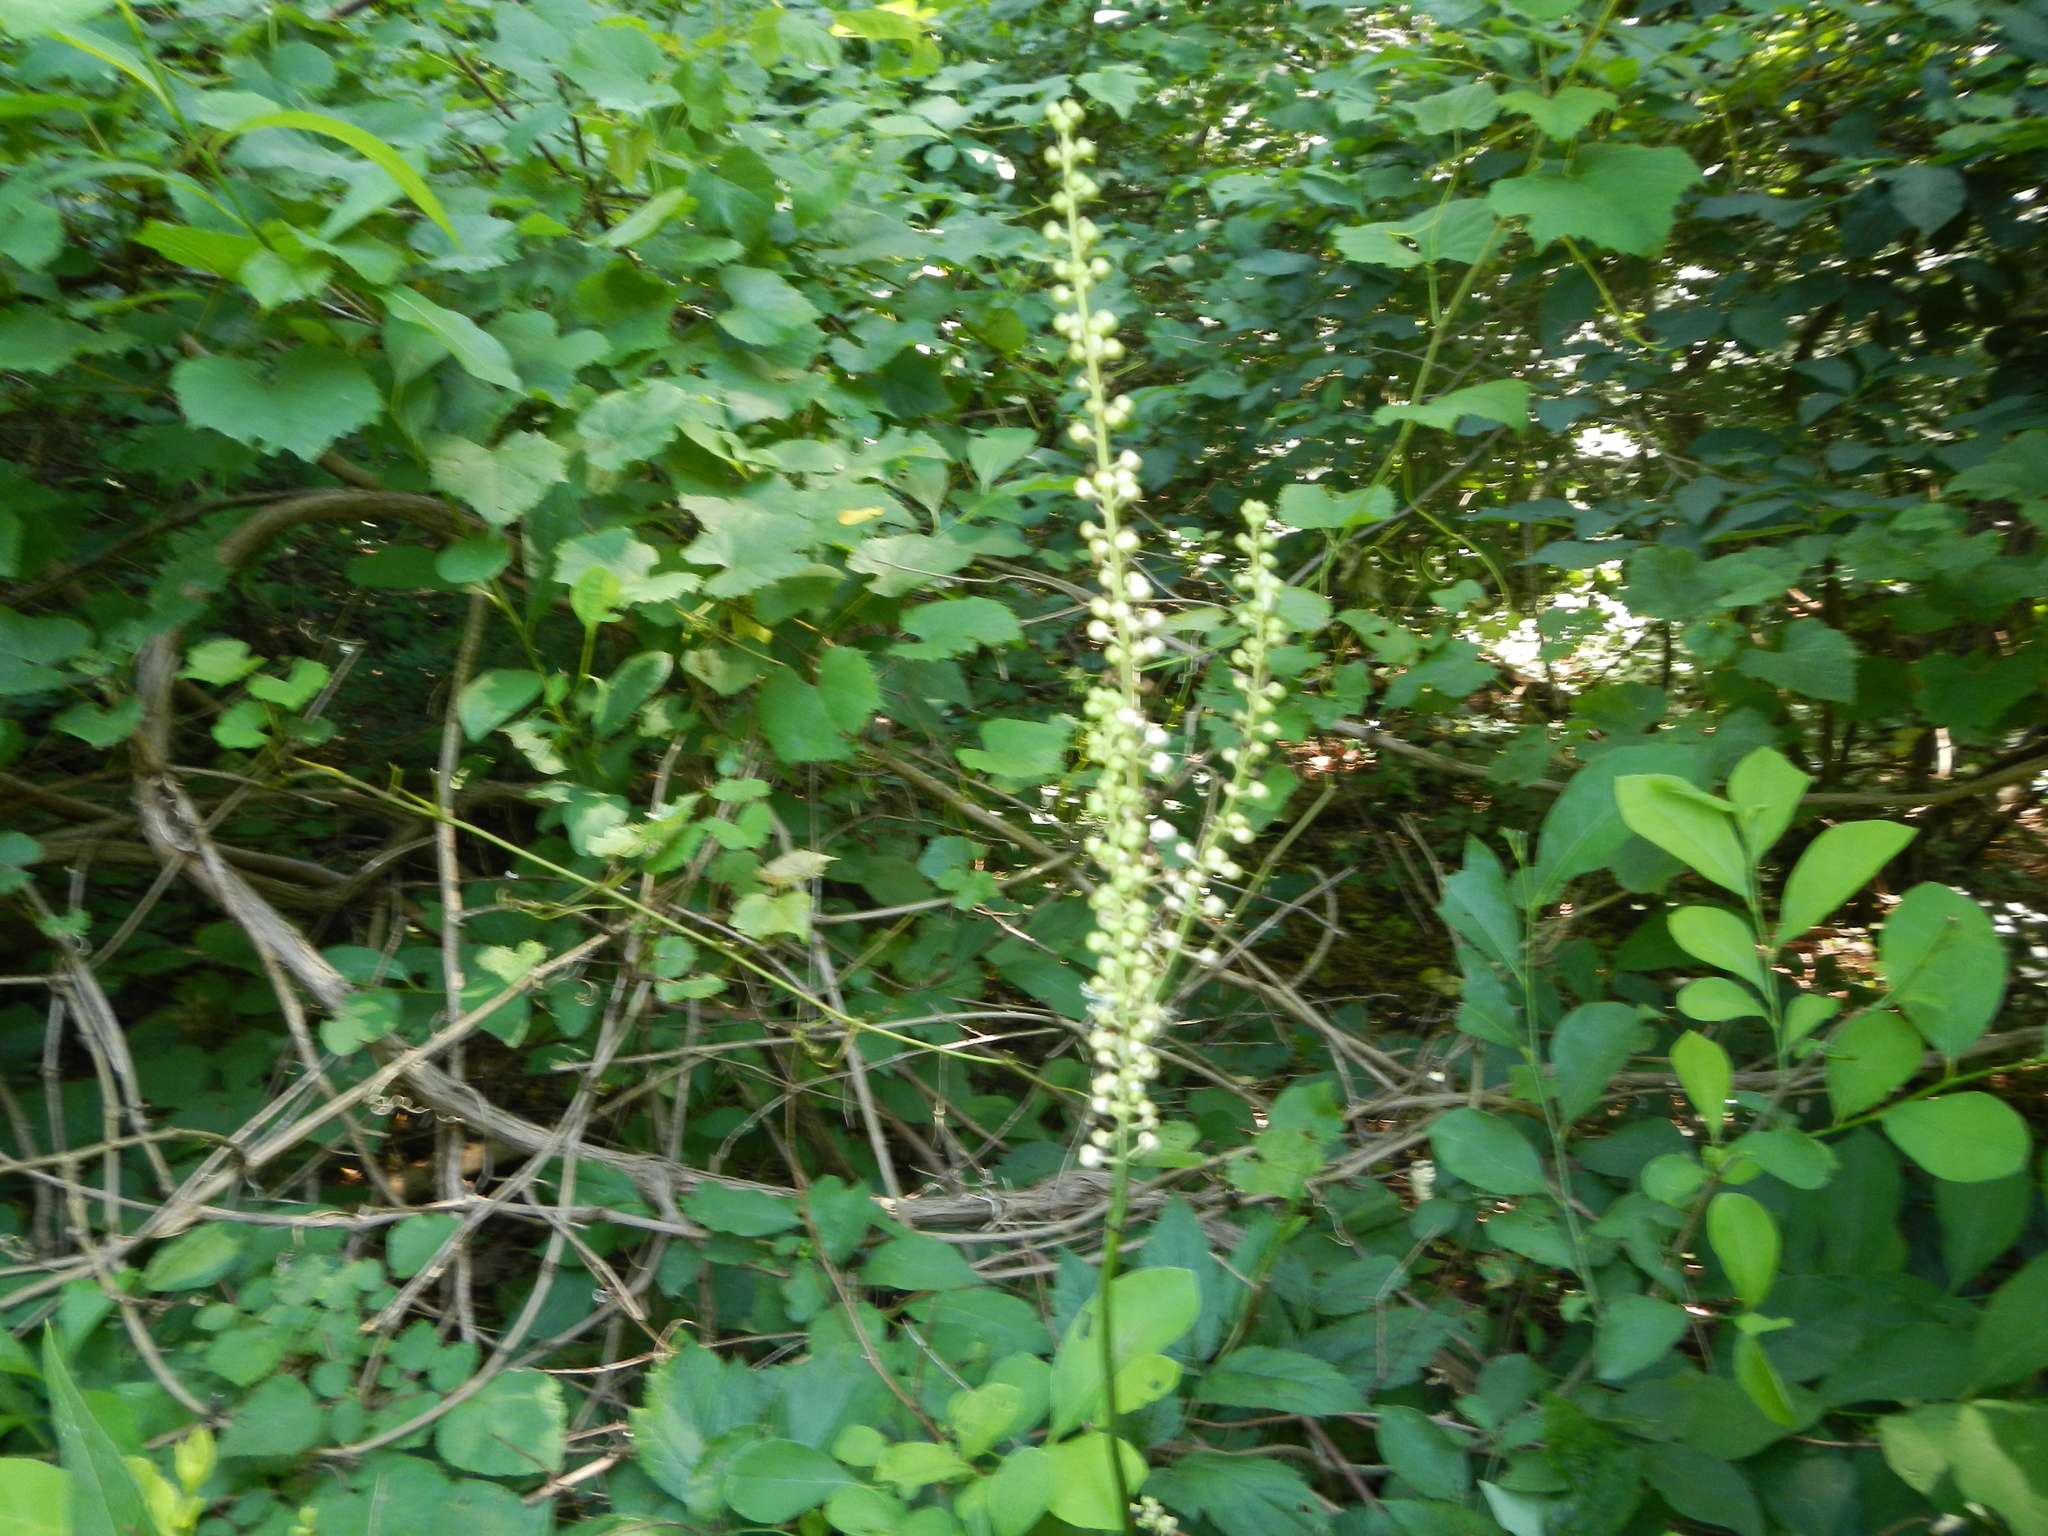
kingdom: Plantae
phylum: Tracheophyta
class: Magnoliopsida
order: Ranunculales
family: Ranunculaceae
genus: Actaea
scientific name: Actaea racemosa
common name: Black cohosh
